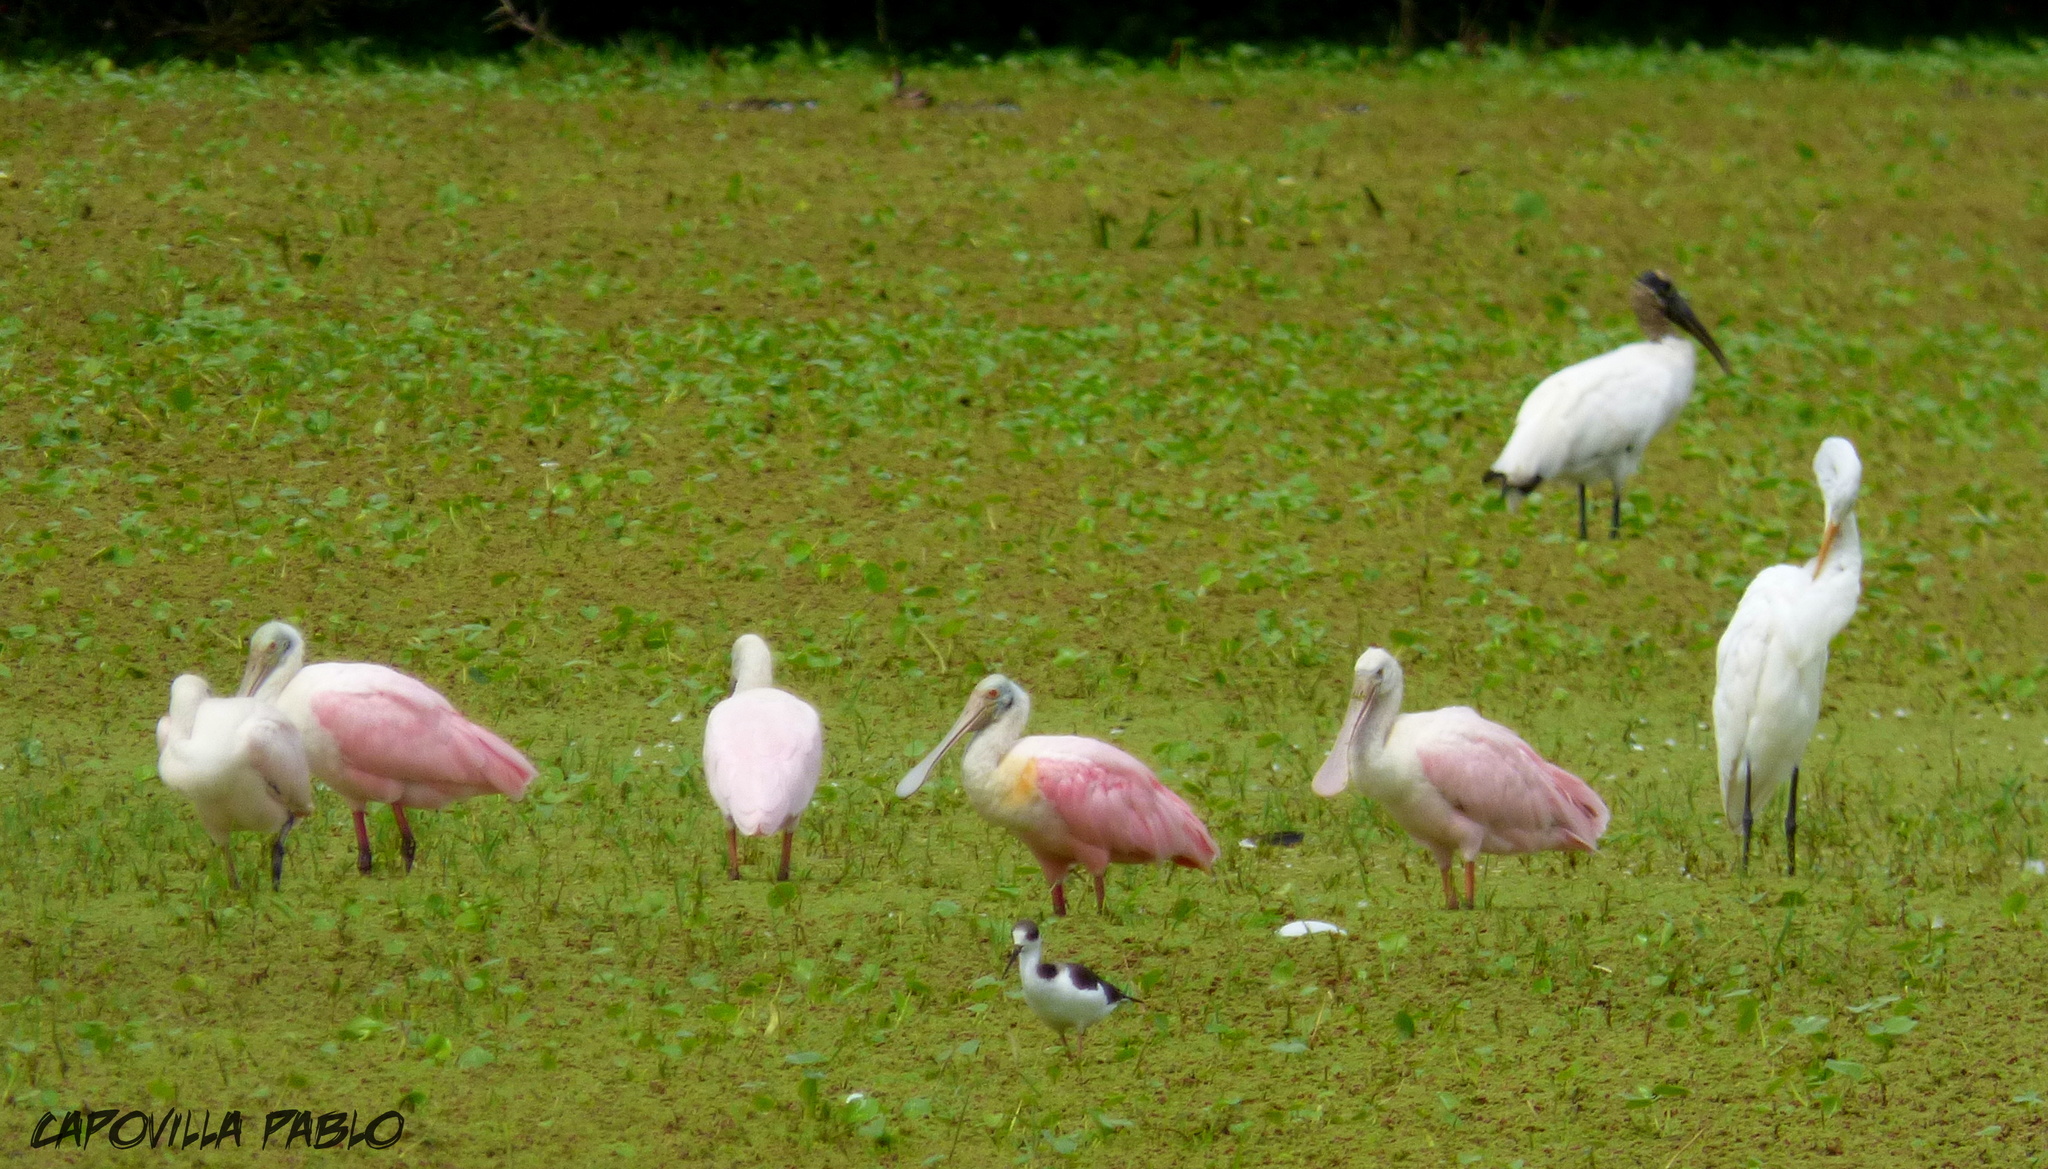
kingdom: Animalia
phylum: Chordata
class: Aves
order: Pelecaniformes
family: Threskiornithidae
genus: Platalea
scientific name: Platalea ajaja
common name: Roseate spoonbill
